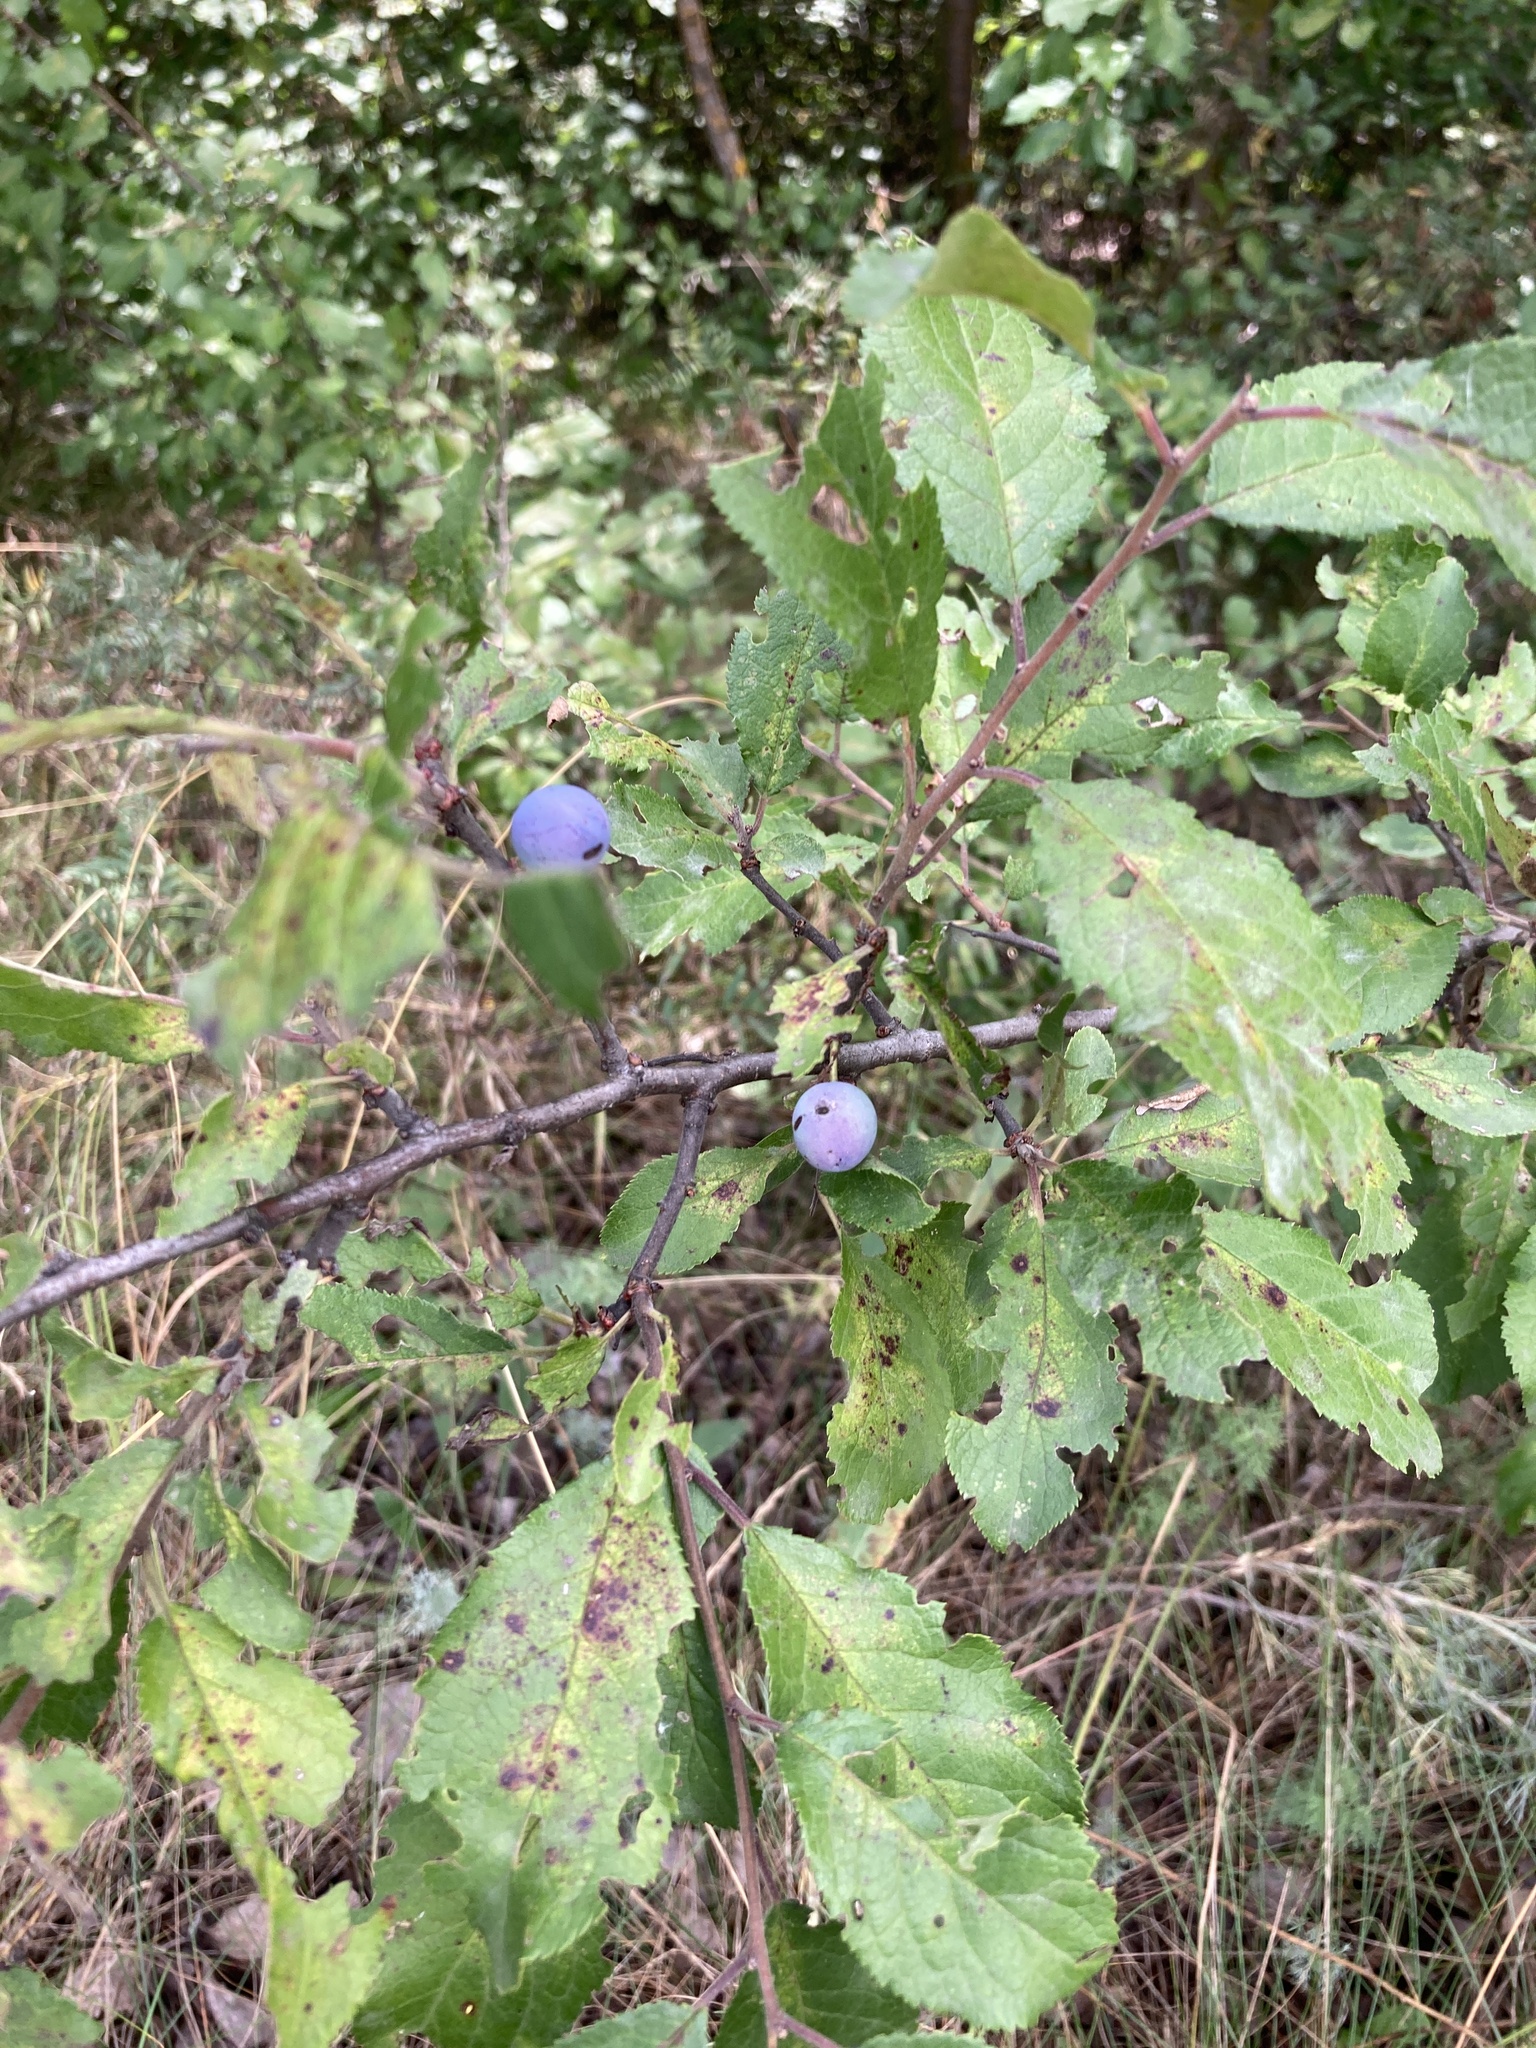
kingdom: Plantae
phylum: Tracheophyta
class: Magnoliopsida
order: Rosales
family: Rosaceae
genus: Prunus
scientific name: Prunus spinosa
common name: Blackthorn
